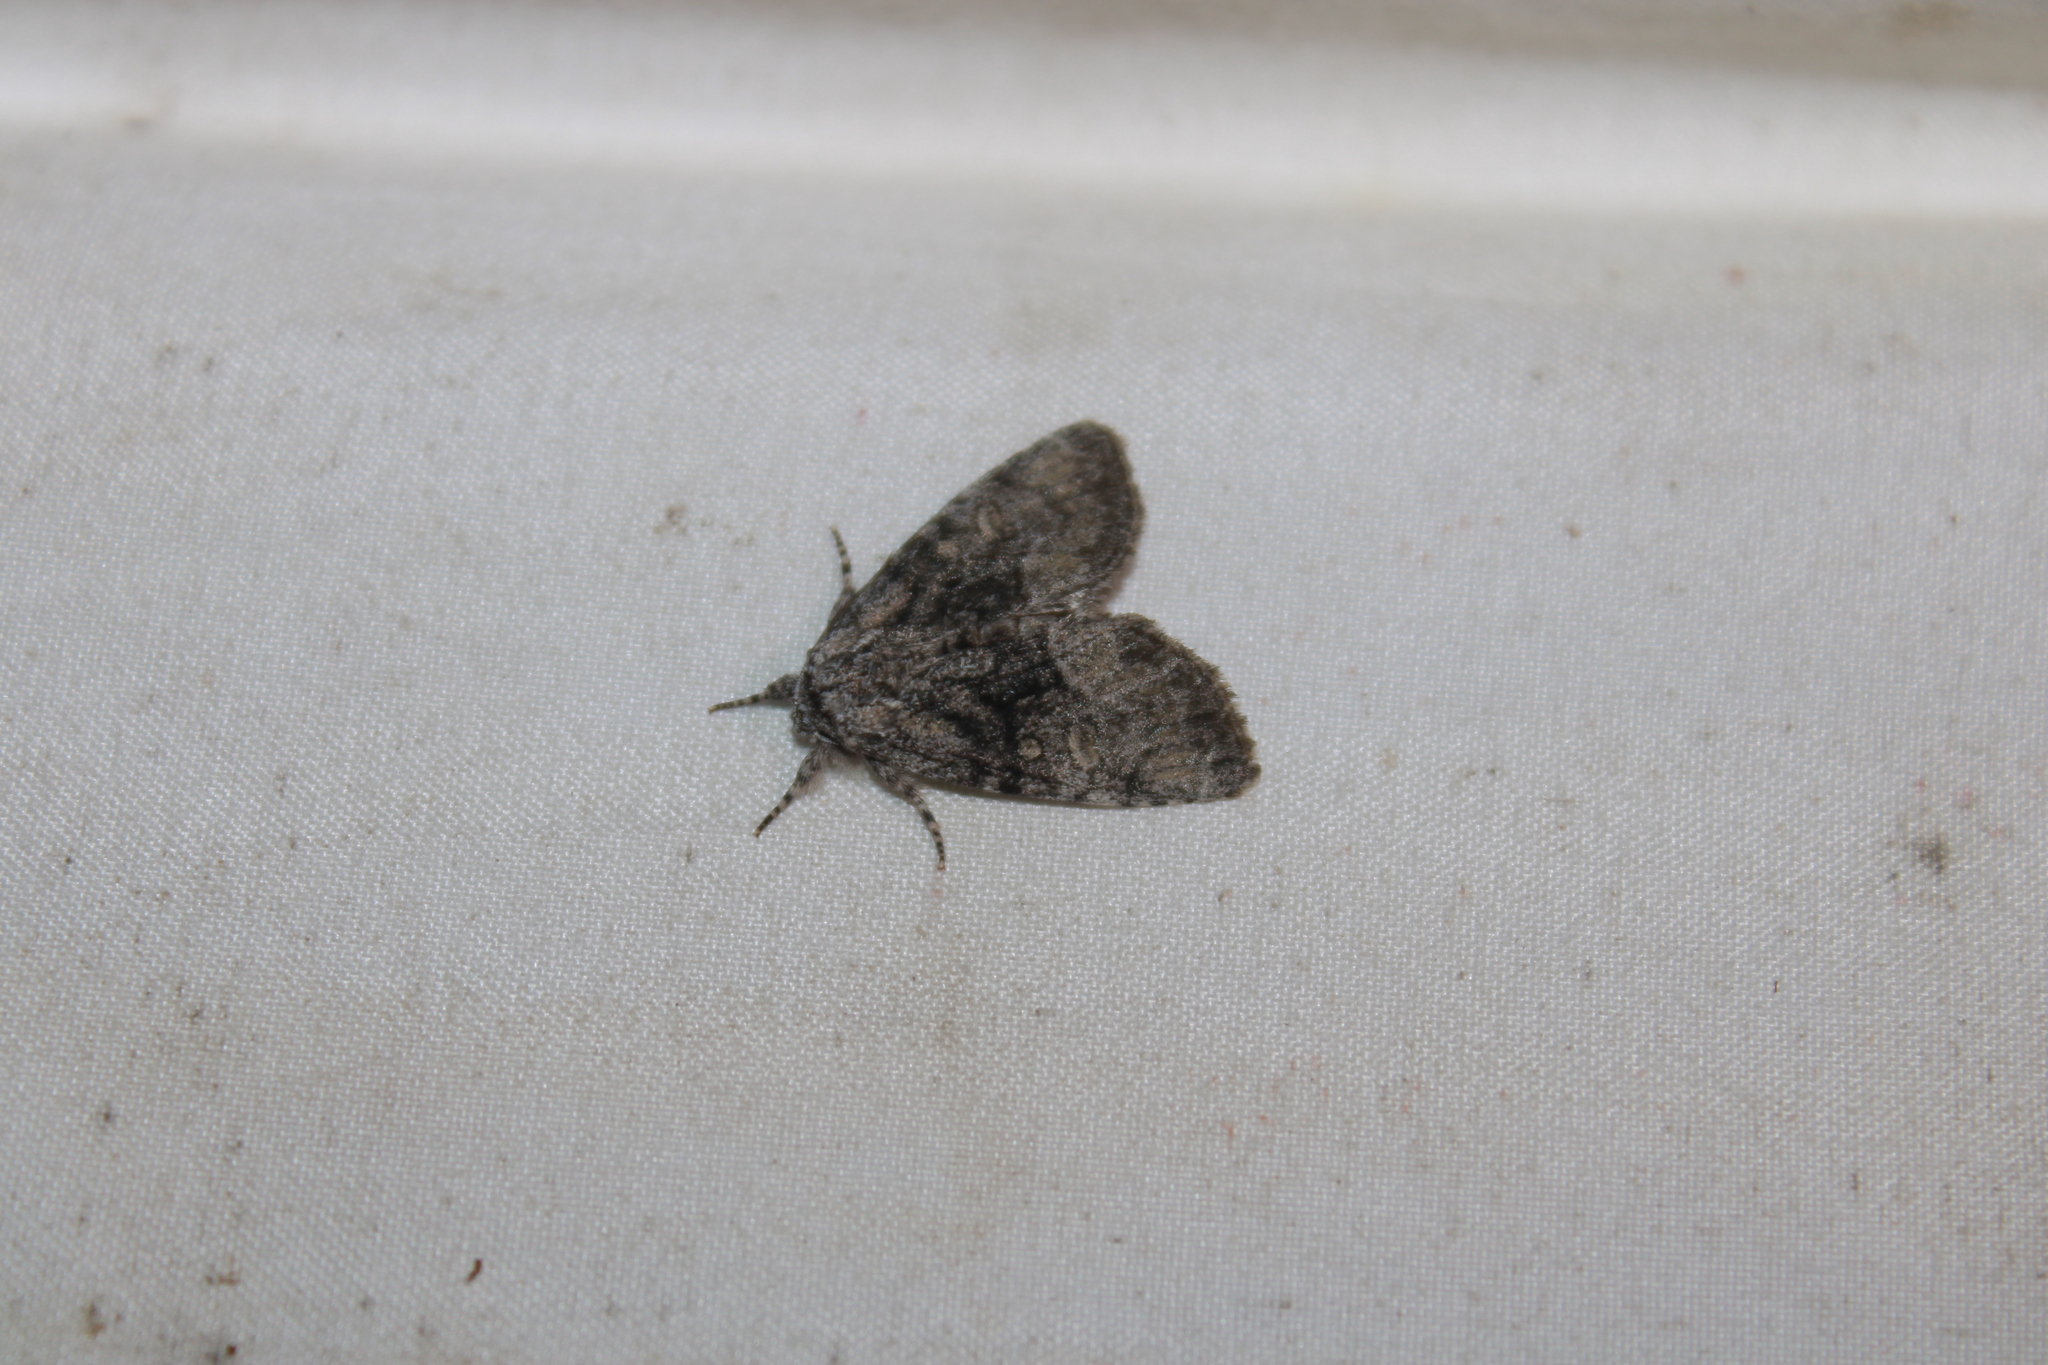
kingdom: Animalia
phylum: Arthropoda
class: Insecta
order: Lepidoptera
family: Noctuidae
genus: Raphia
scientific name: Raphia frater
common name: Brother
